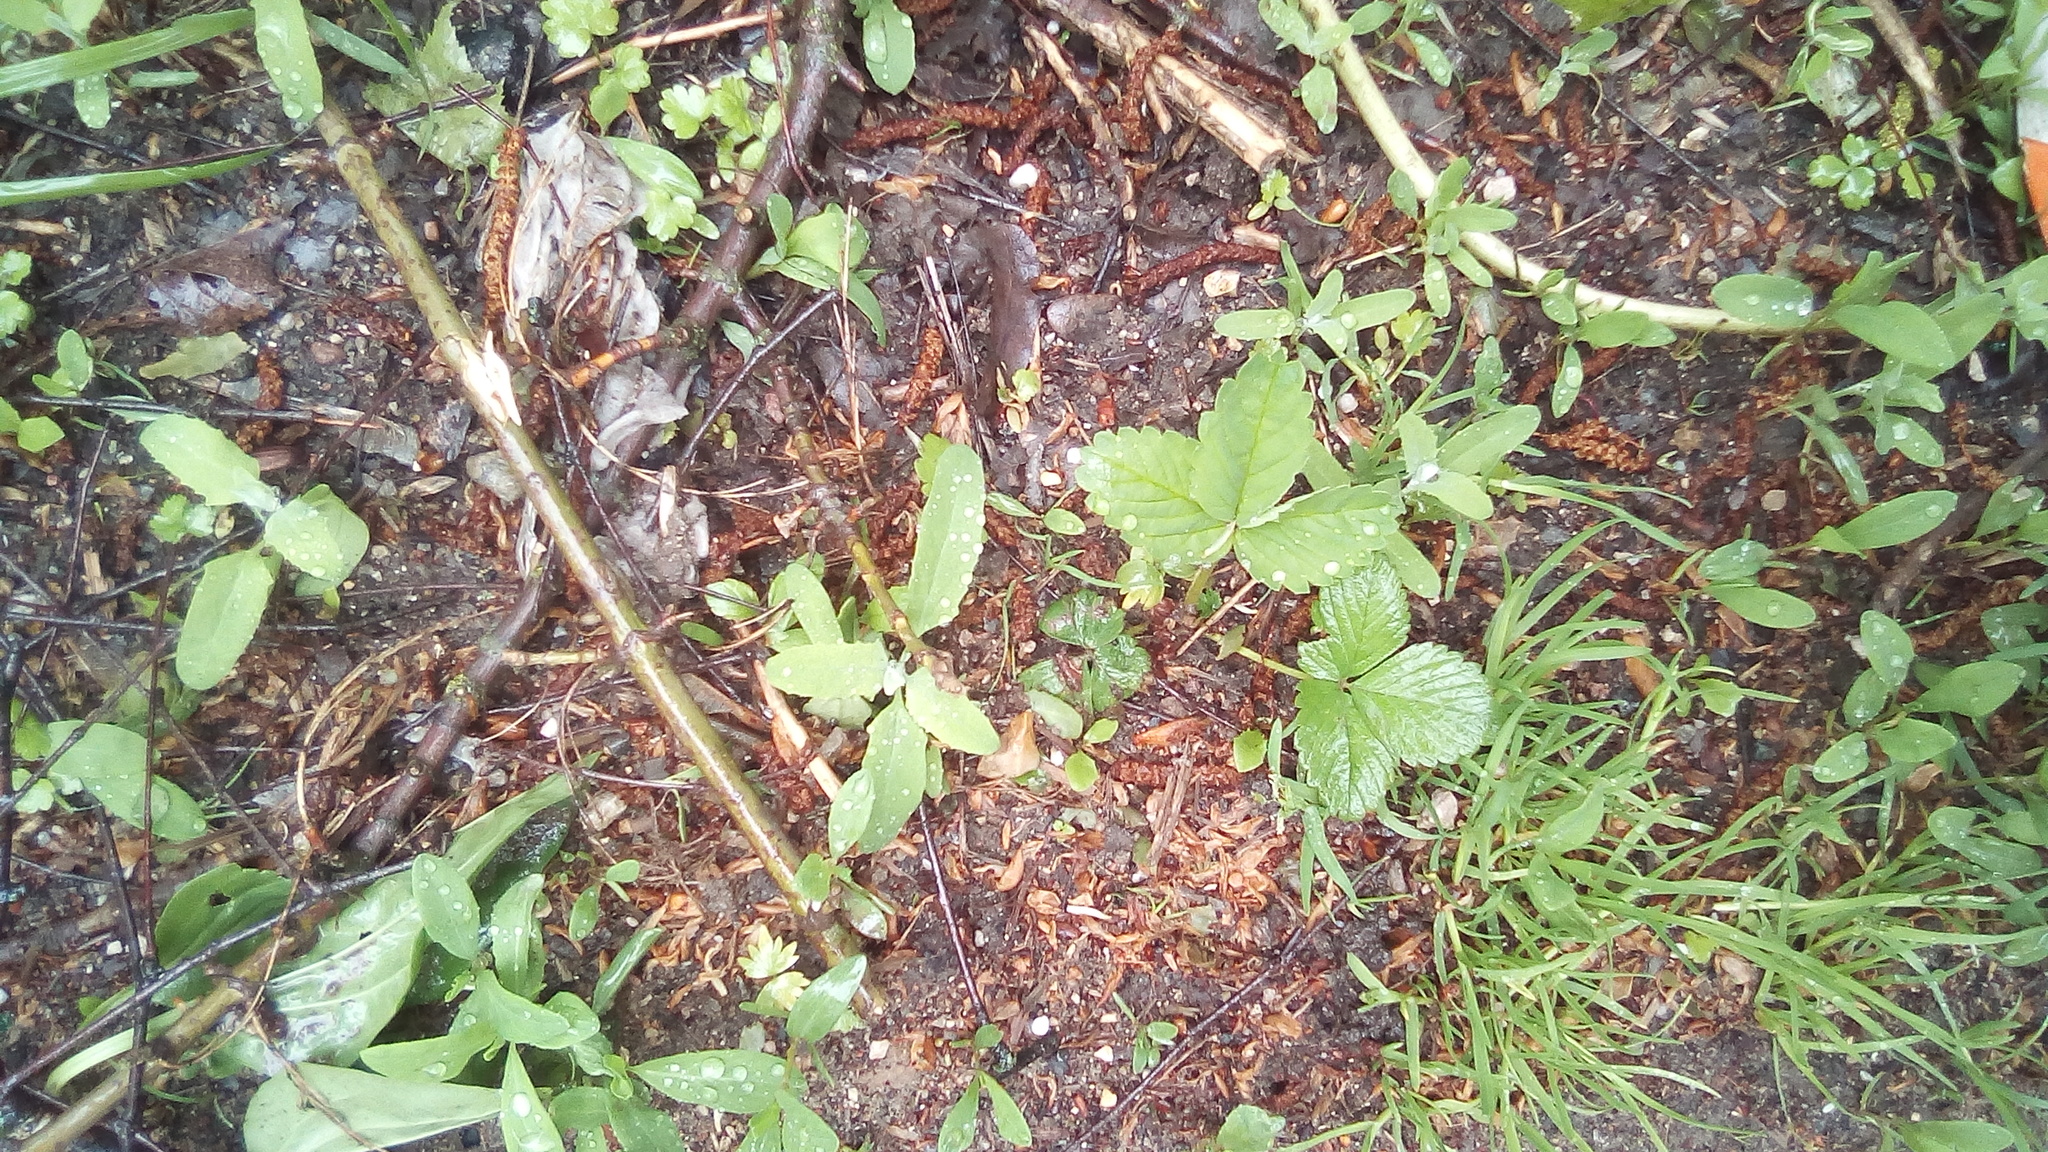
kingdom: Plantae
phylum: Tracheophyta
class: Magnoliopsida
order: Rosales
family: Rosaceae
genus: Fragaria
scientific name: Fragaria ananassa
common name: Garden strawberry
